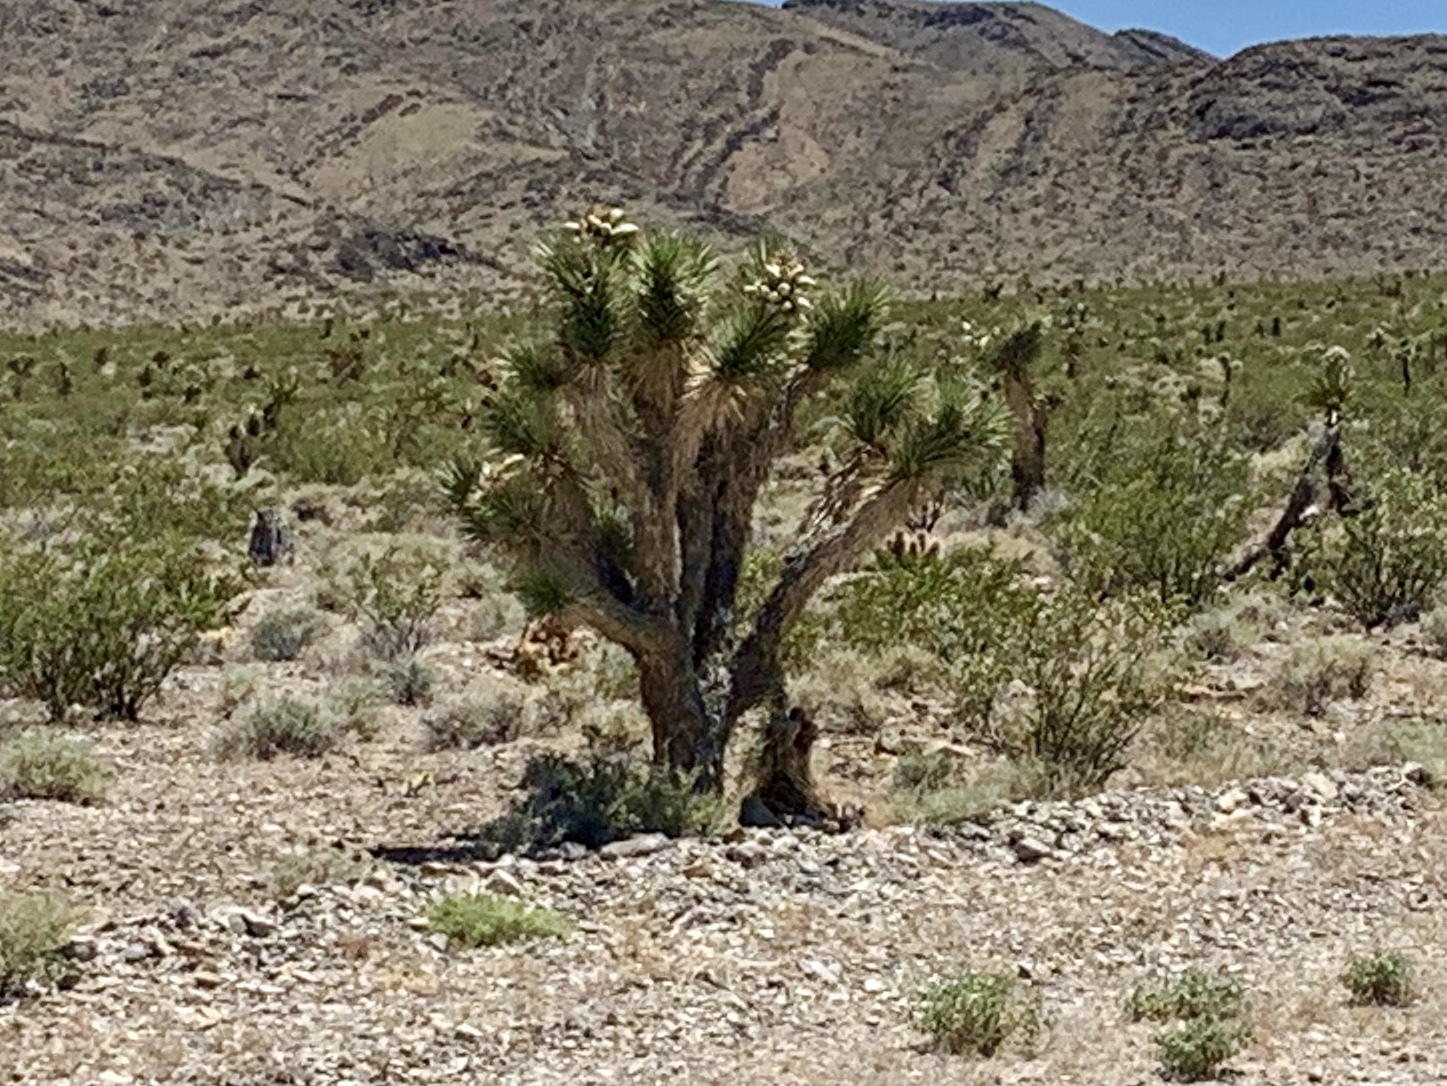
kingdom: Plantae
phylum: Tracheophyta
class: Liliopsida
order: Asparagales
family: Asparagaceae
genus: Yucca
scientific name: Yucca brevifolia
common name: Joshua tree
